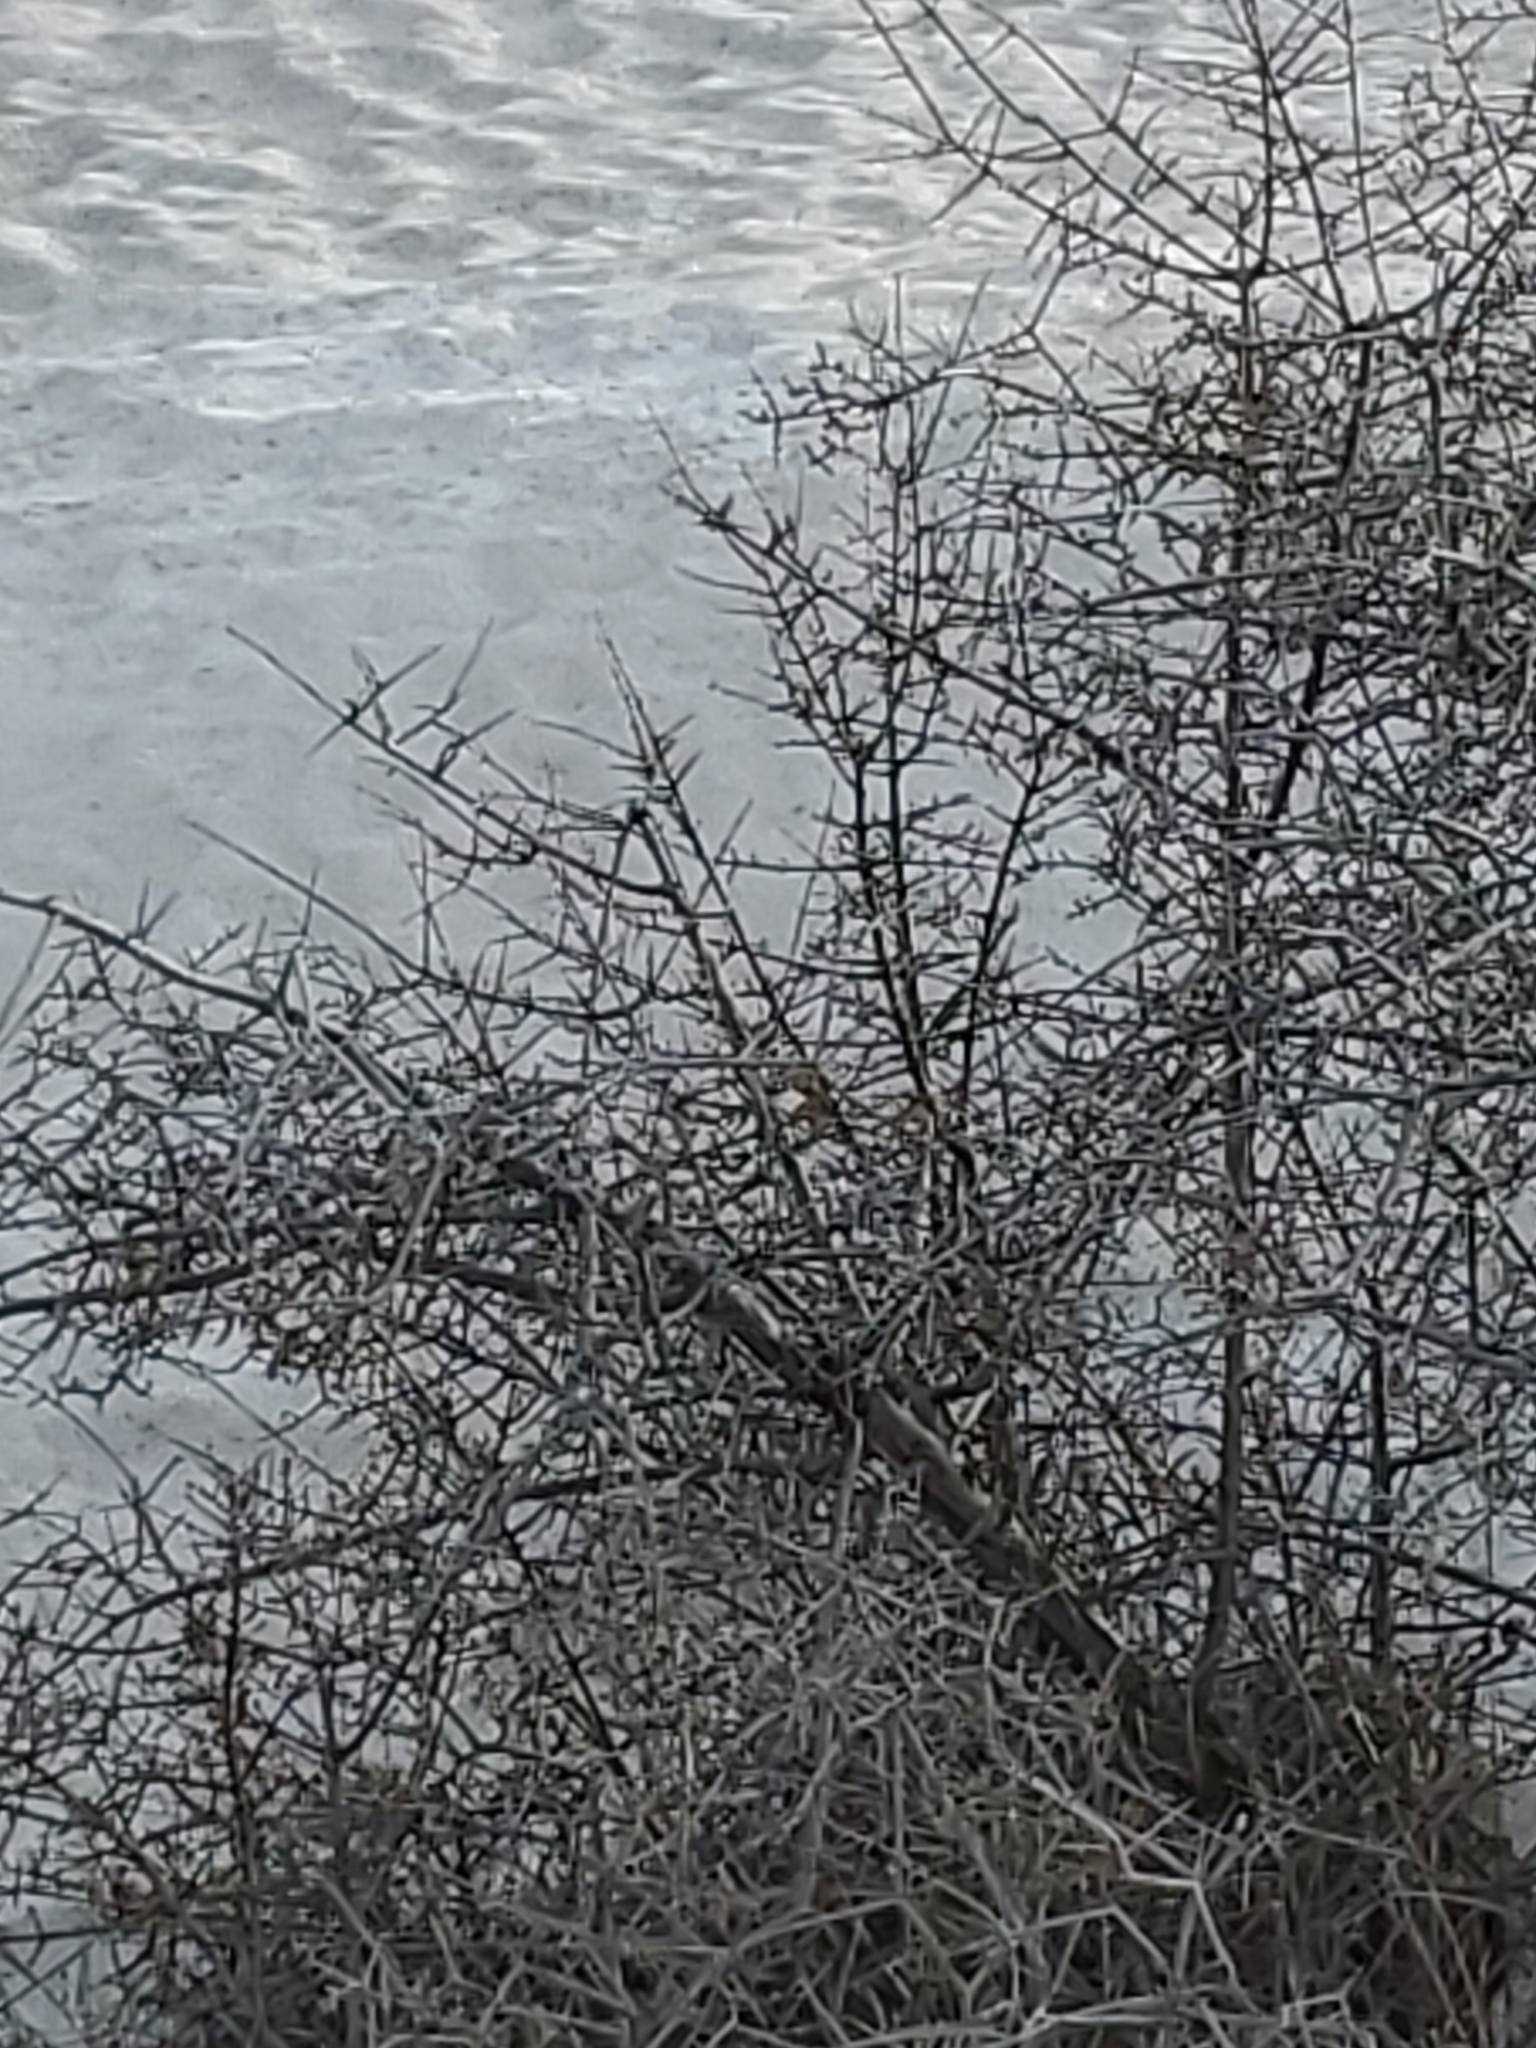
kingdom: Plantae
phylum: Tracheophyta
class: Magnoliopsida
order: Rosales
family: Elaeagnaceae
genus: Shepherdia
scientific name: Shepherdia argentea
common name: Silver buffaloberry
